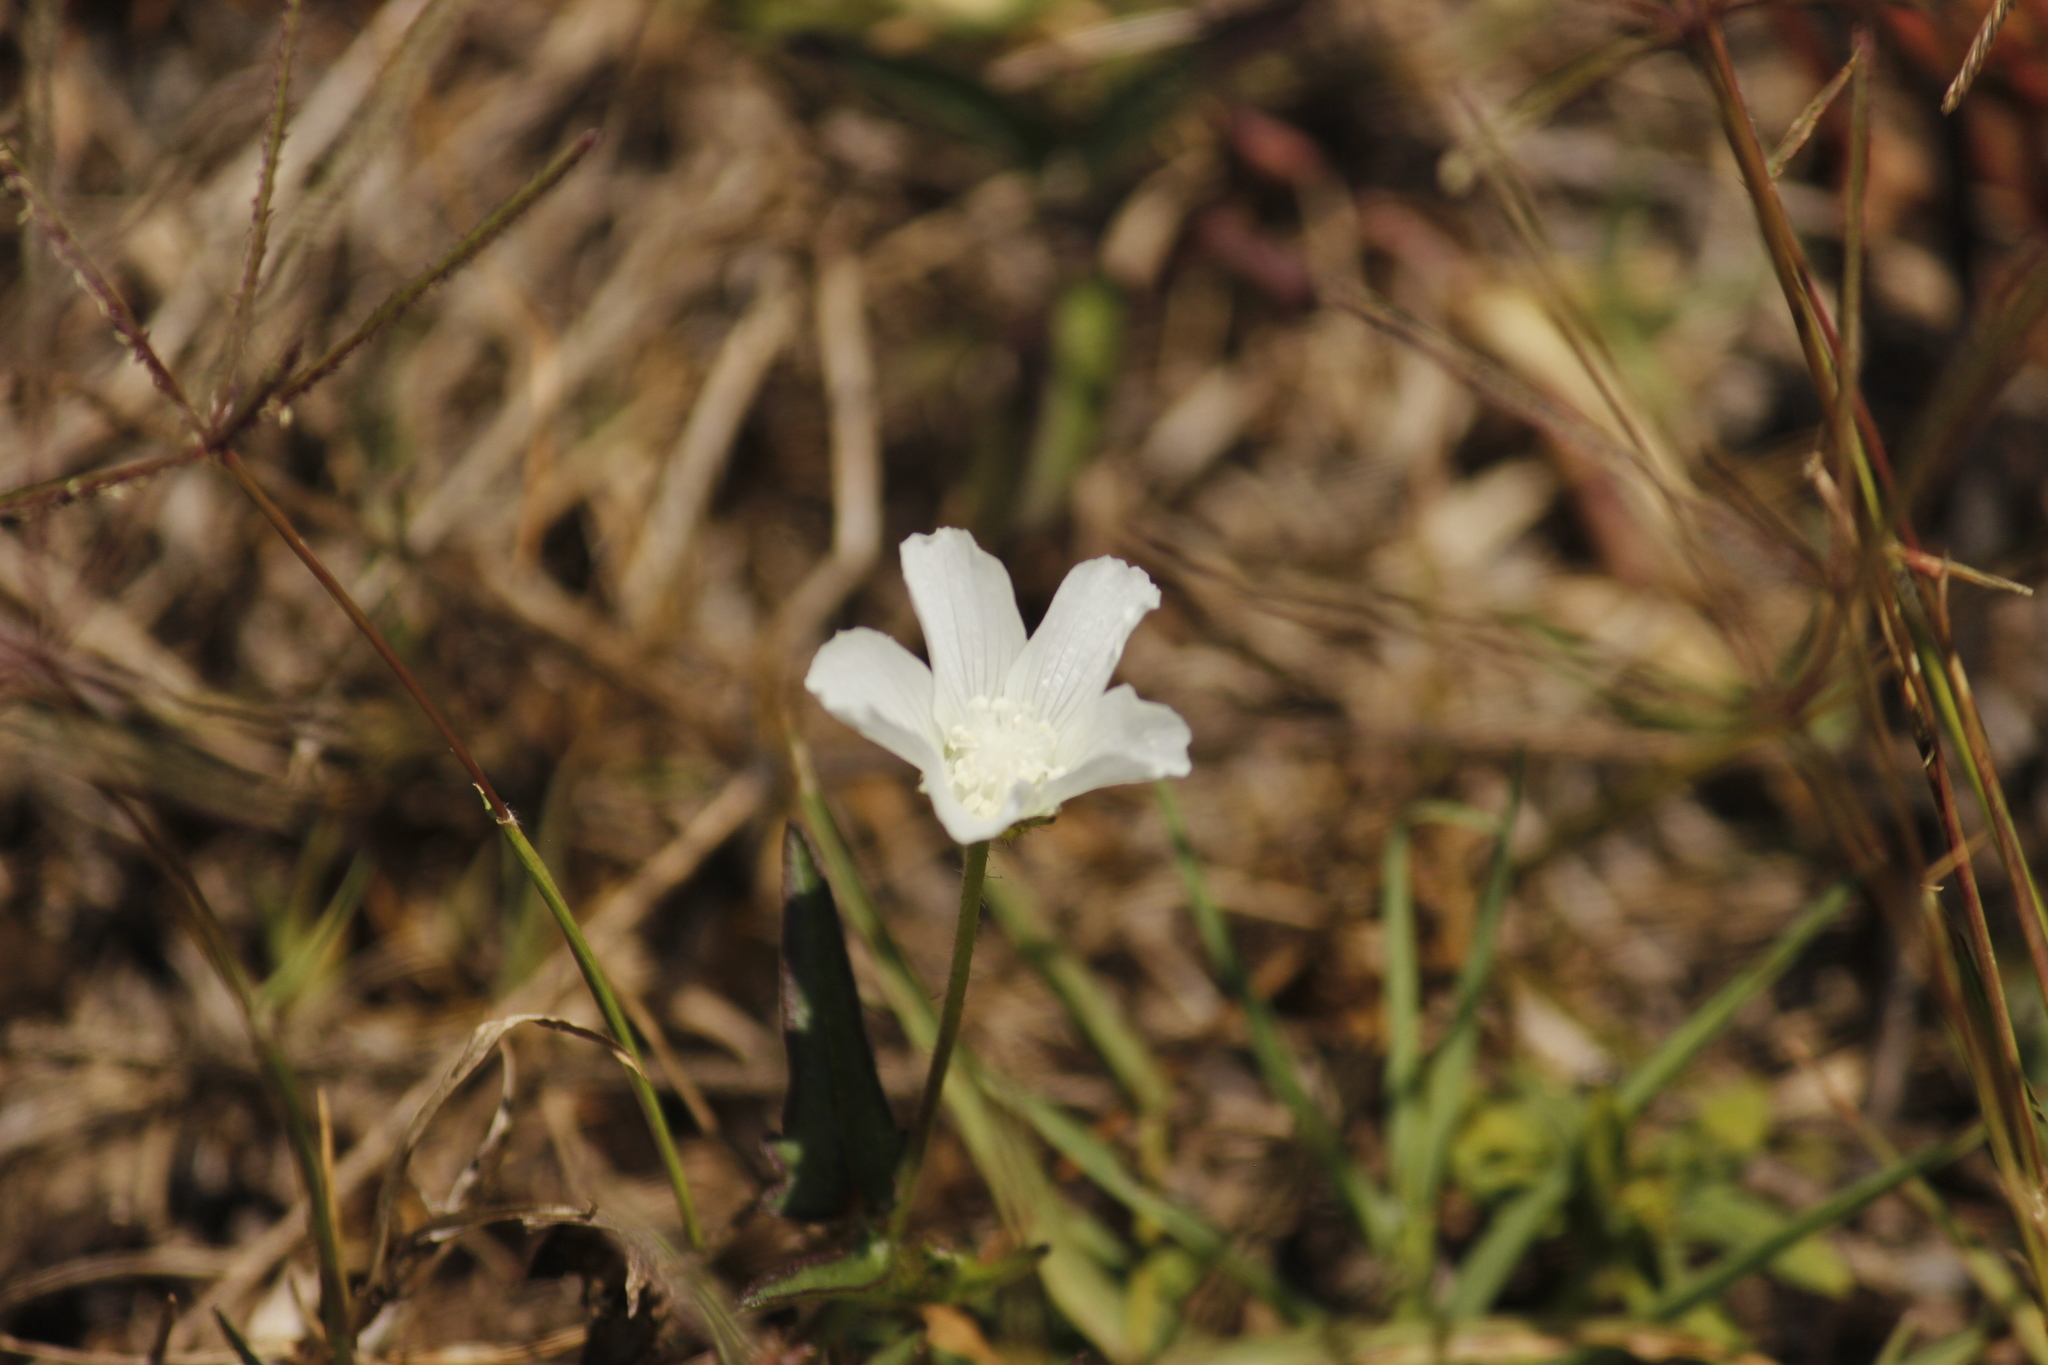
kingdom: Plantae
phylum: Tracheophyta
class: Magnoliopsida
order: Malvales
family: Malvaceae
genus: Anoda
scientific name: Anoda cristata
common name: Spurred anoda
